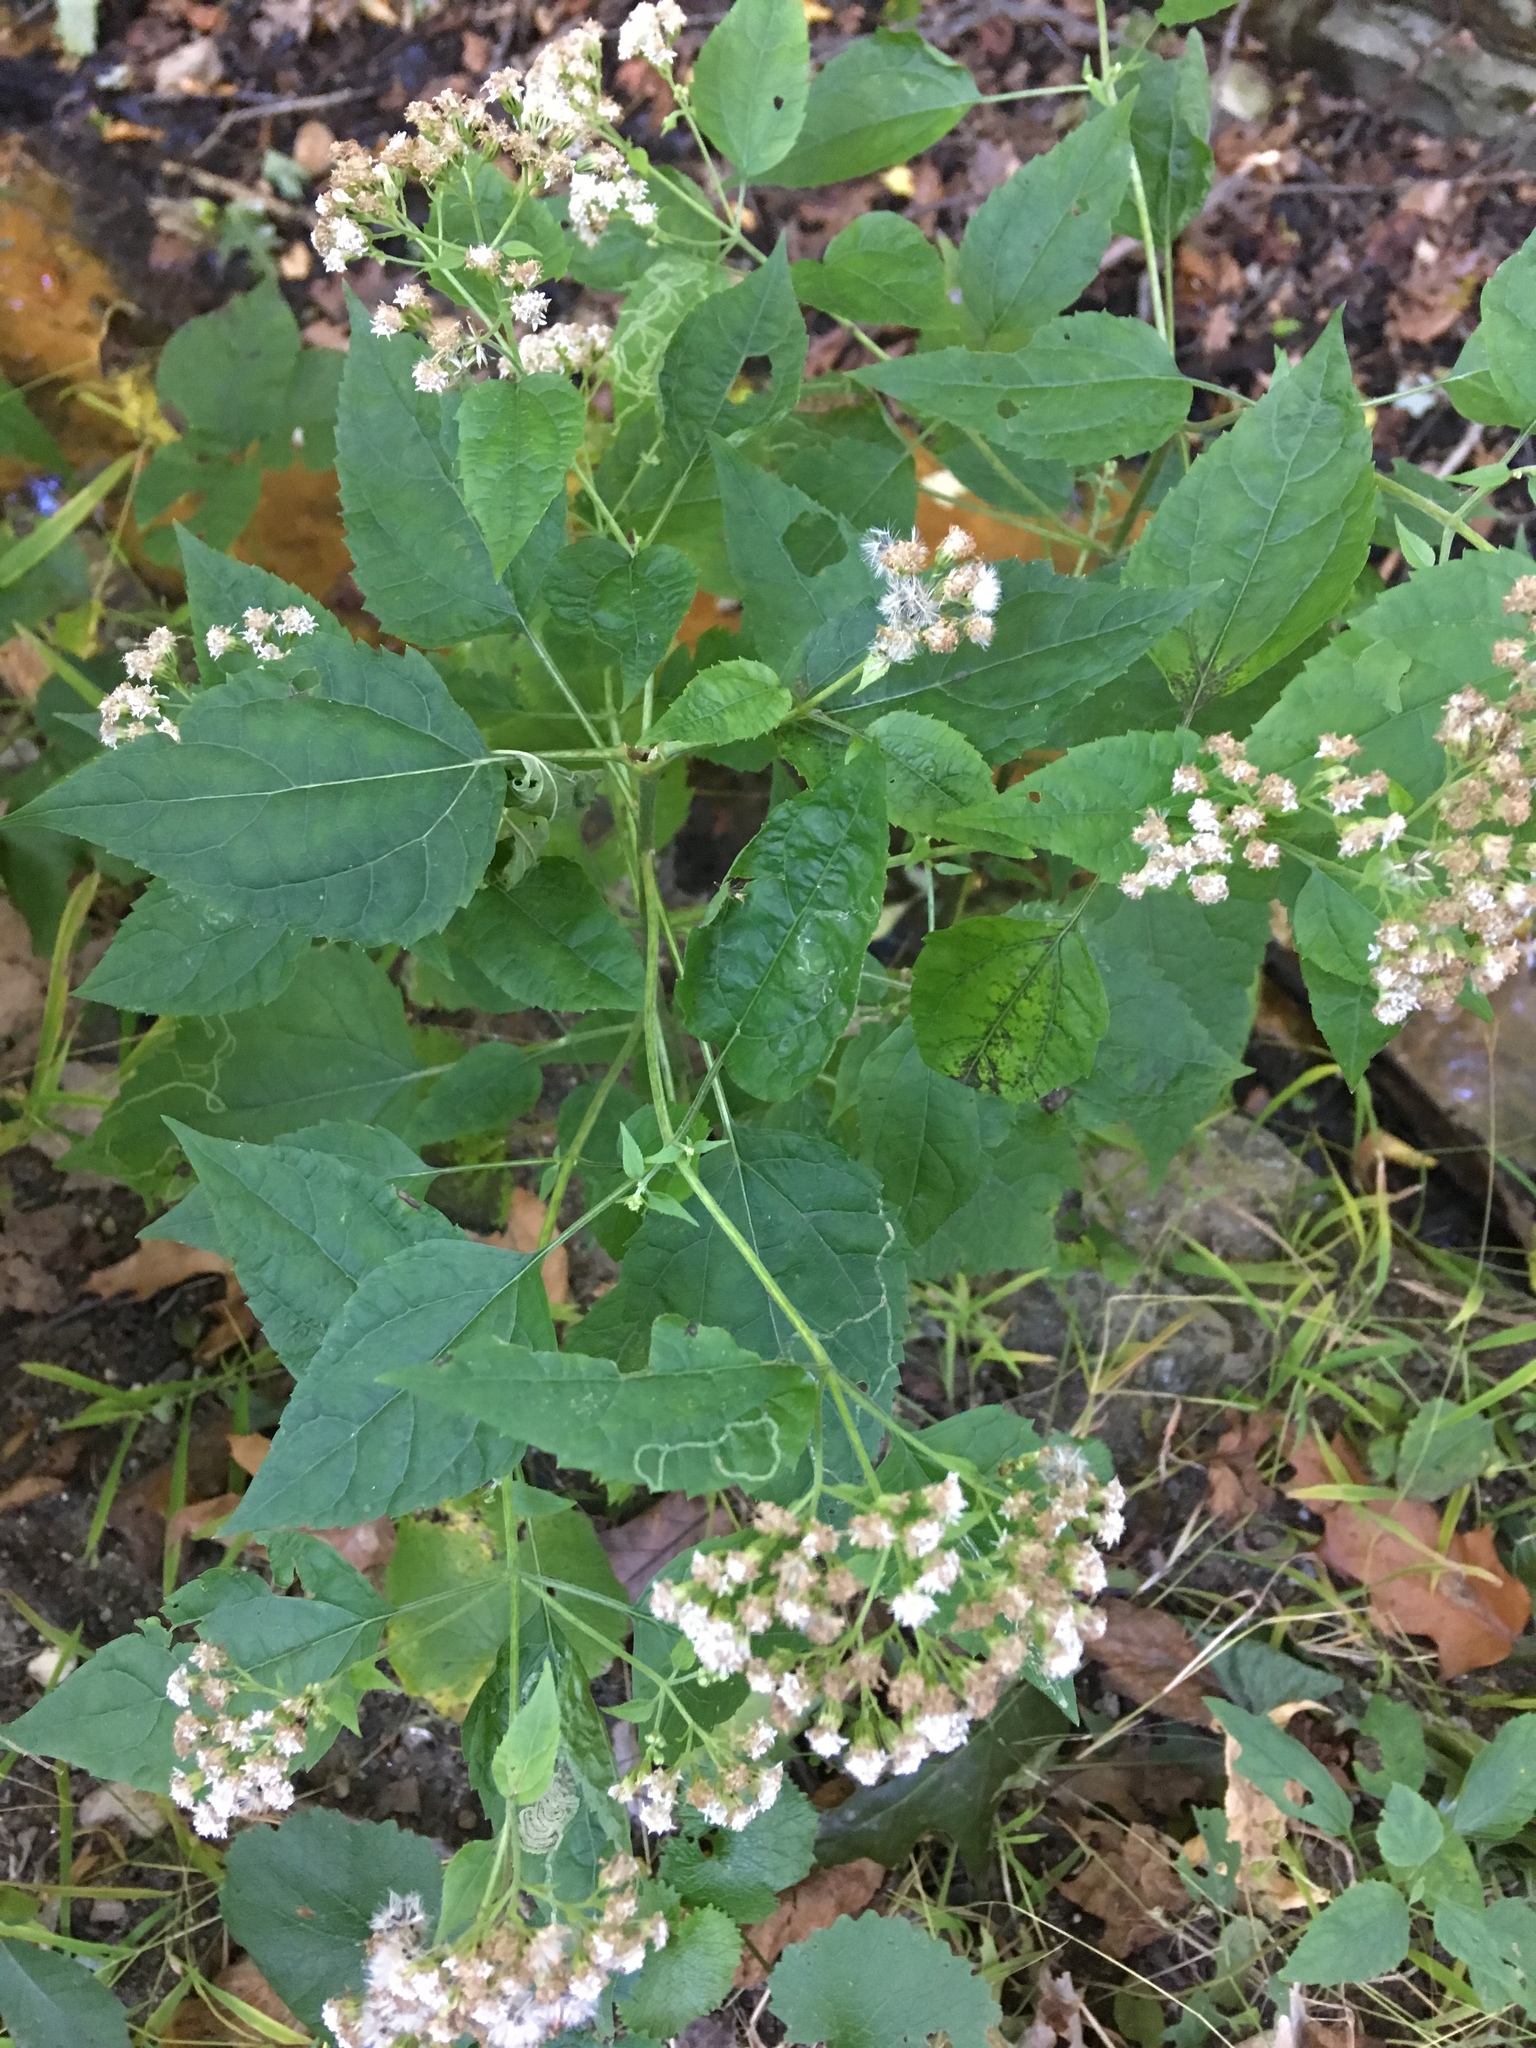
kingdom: Plantae
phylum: Tracheophyta
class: Magnoliopsida
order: Asterales
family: Asteraceae
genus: Ageratina
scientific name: Ageratina altissima
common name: White snakeroot
